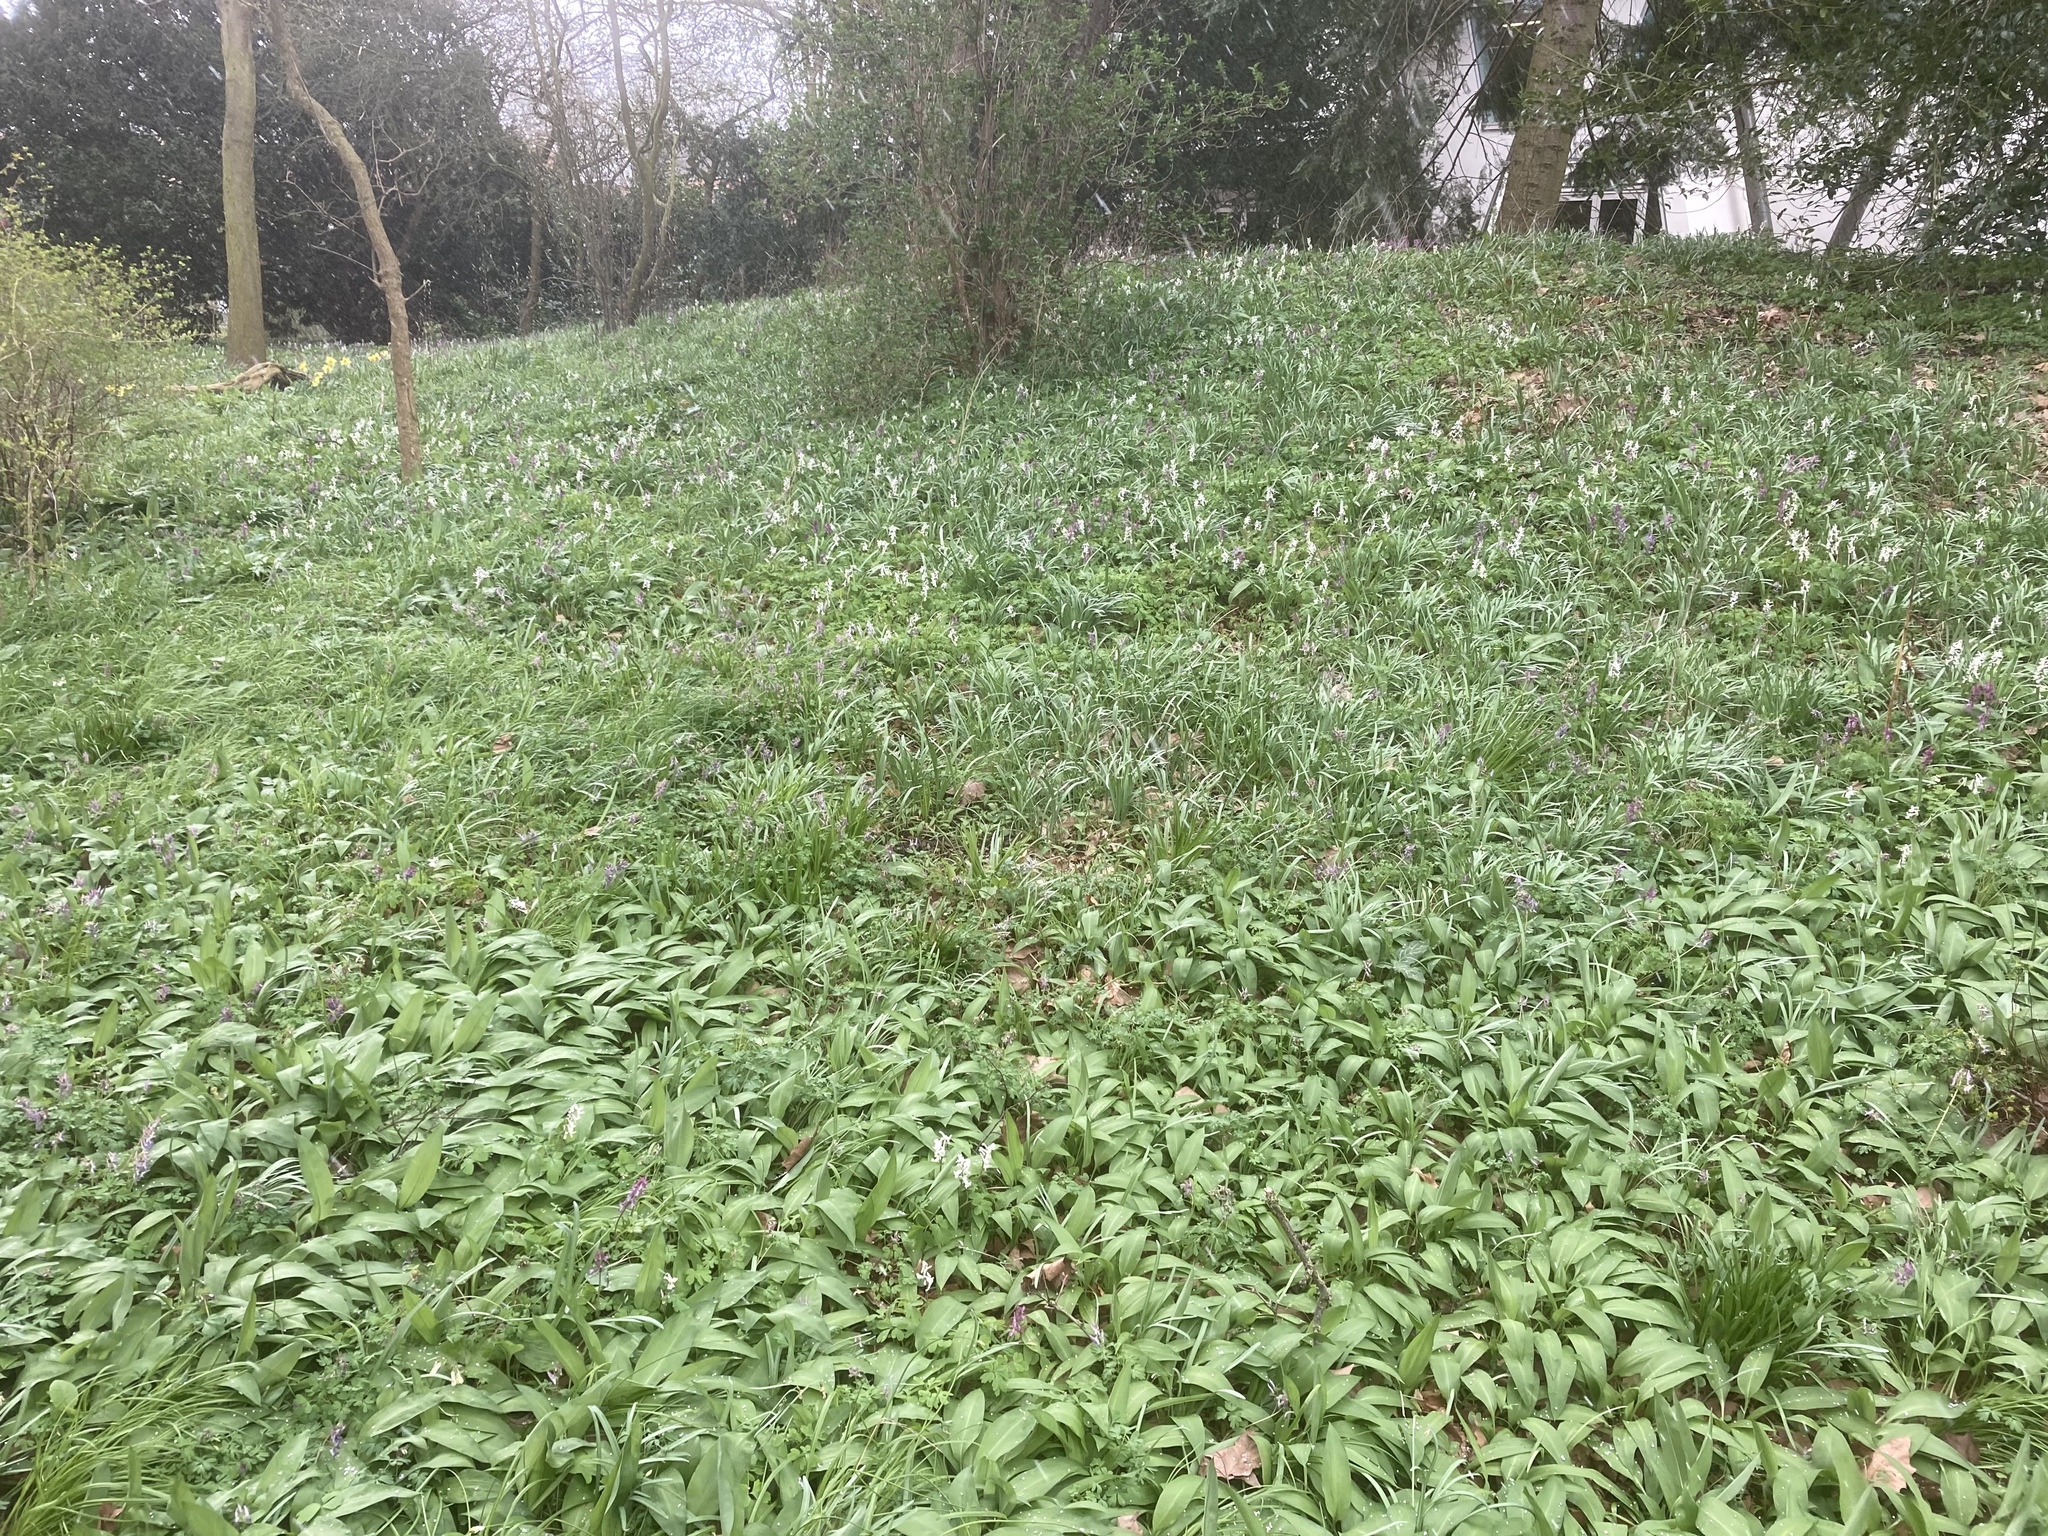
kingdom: Plantae
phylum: Tracheophyta
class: Liliopsida
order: Asparagales
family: Amaryllidaceae
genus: Allium
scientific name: Allium ursinum
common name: Ramsons
